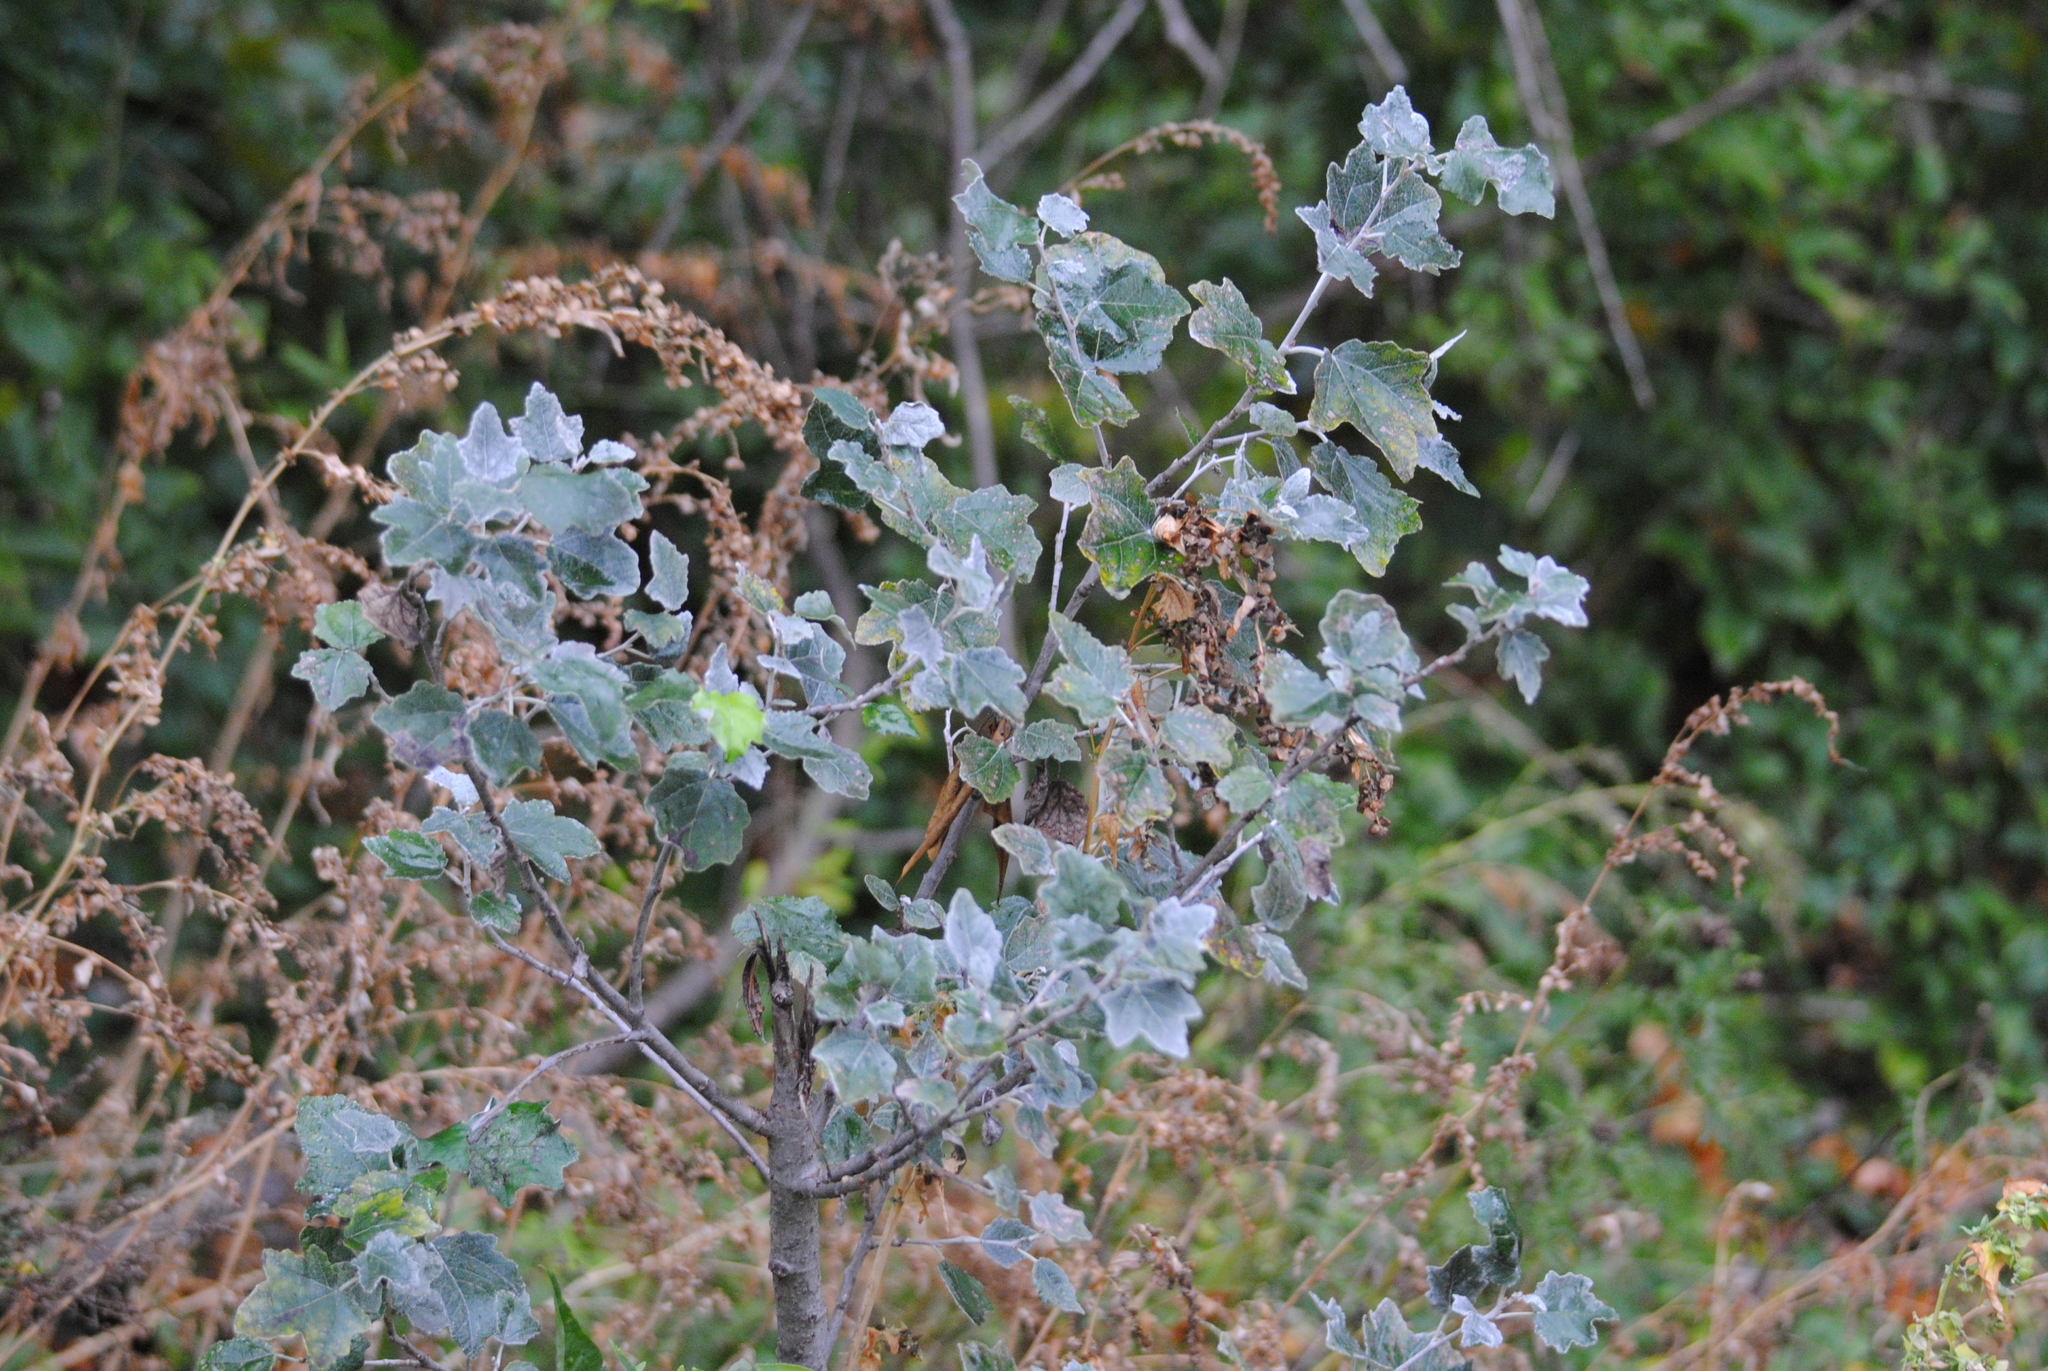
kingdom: Plantae
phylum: Tracheophyta
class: Magnoliopsida
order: Malpighiales
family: Salicaceae
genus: Populus
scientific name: Populus alba
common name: White poplar
